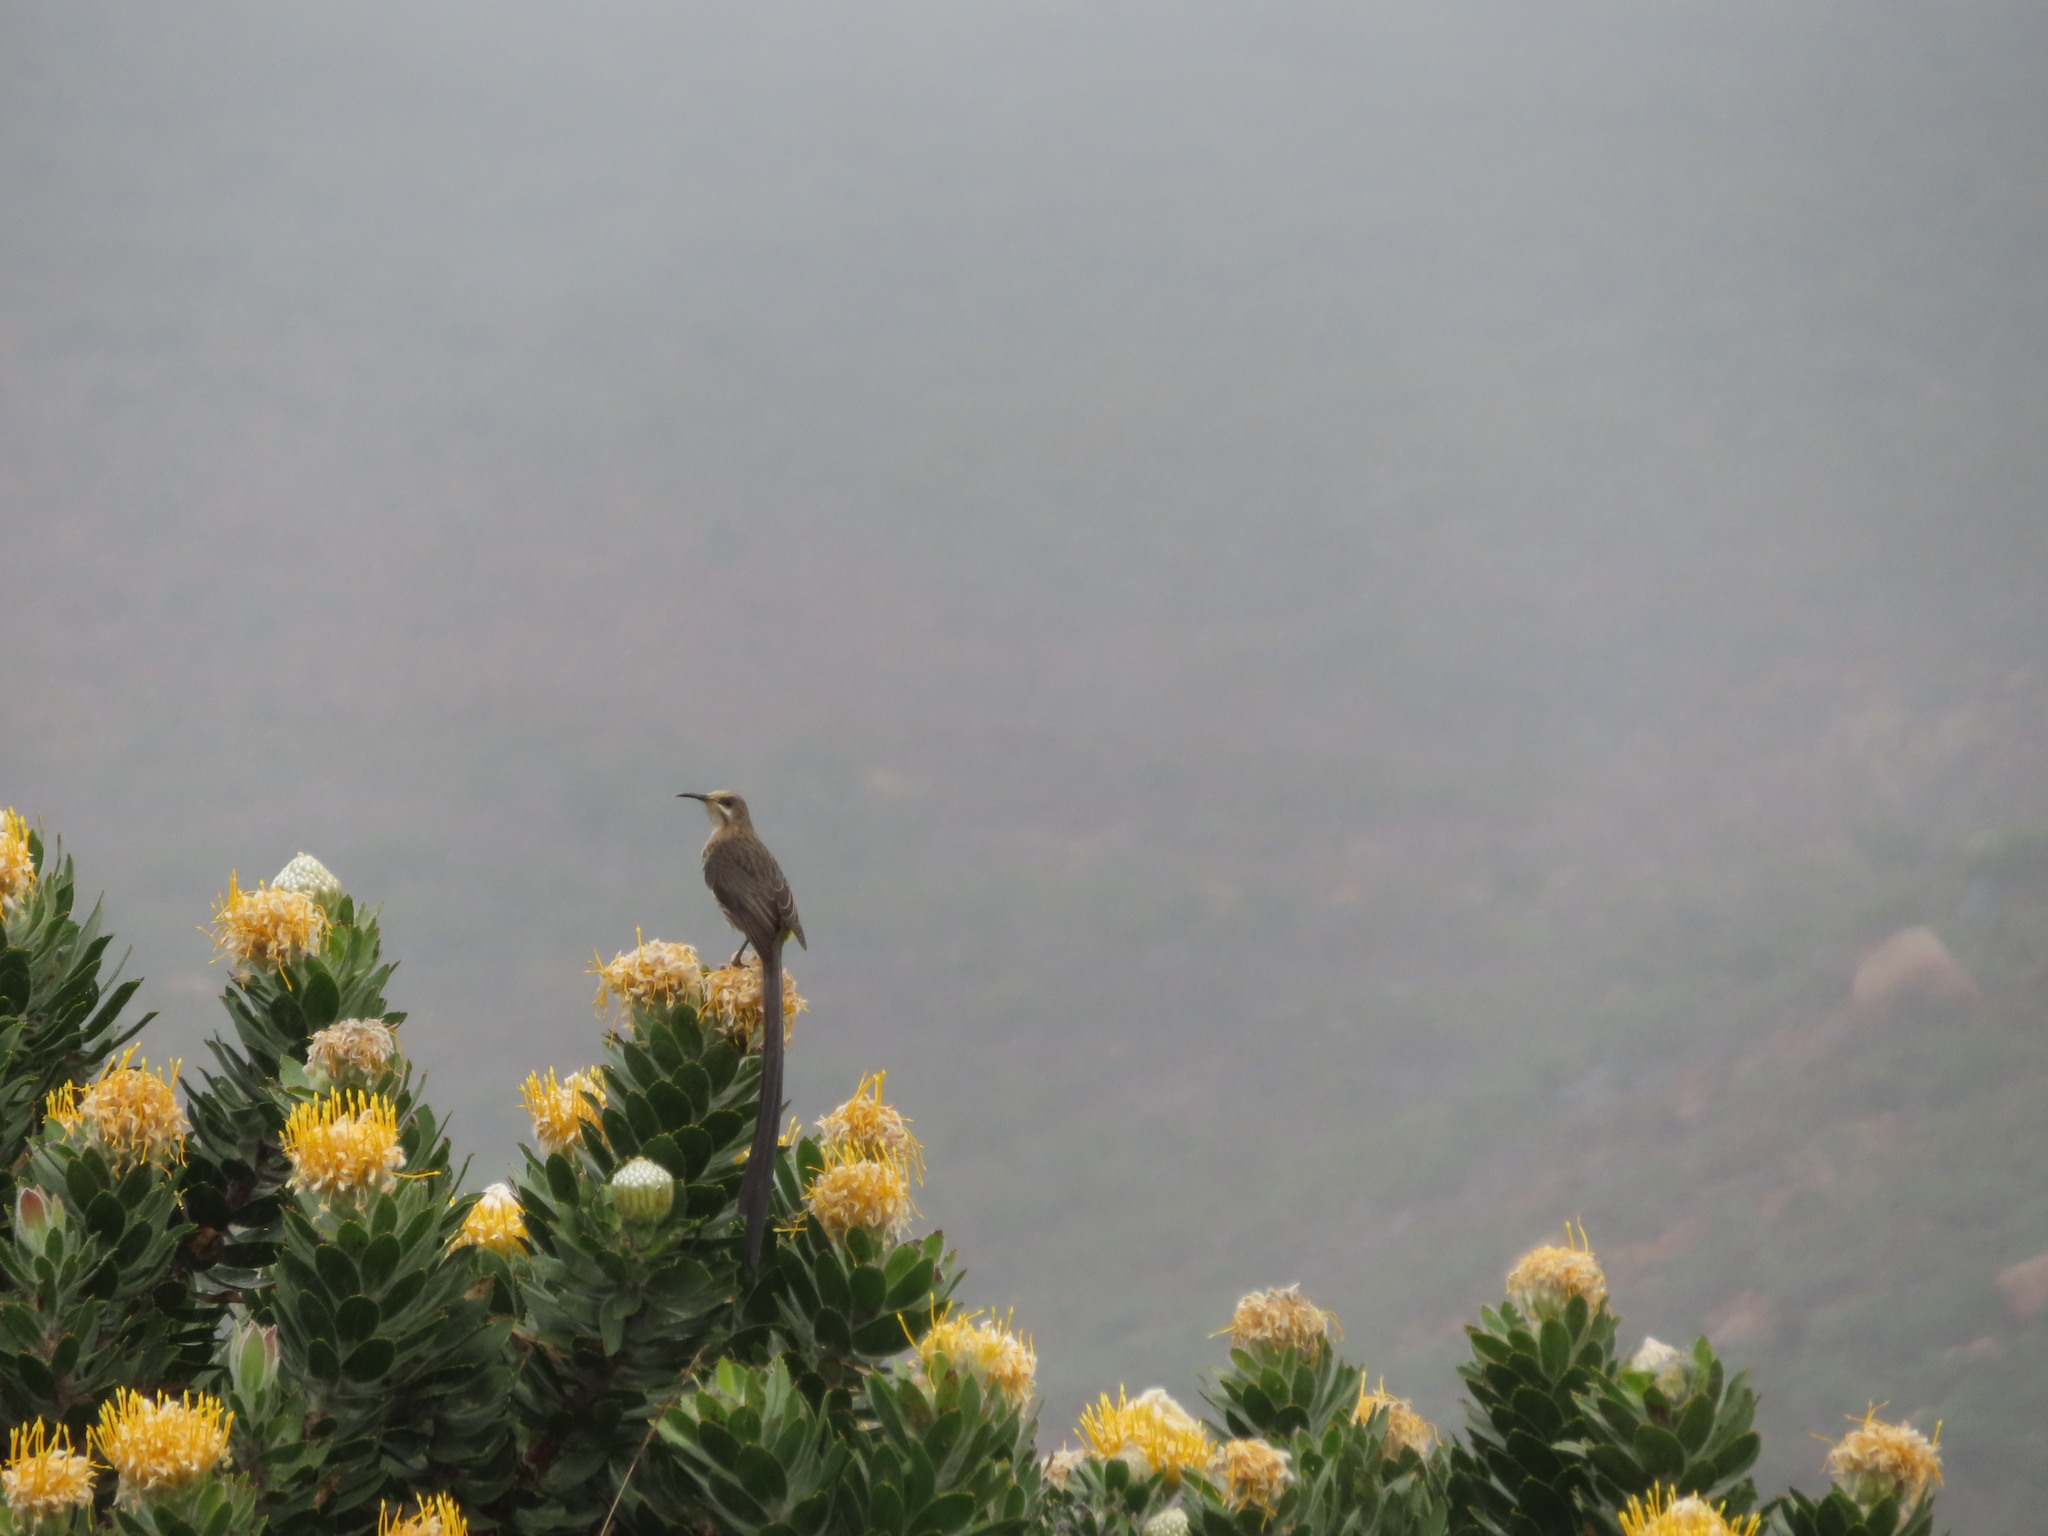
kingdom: Animalia
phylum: Chordata
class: Aves
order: Passeriformes
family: Promeropidae
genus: Promerops
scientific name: Promerops cafer
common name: Cape sugarbird
